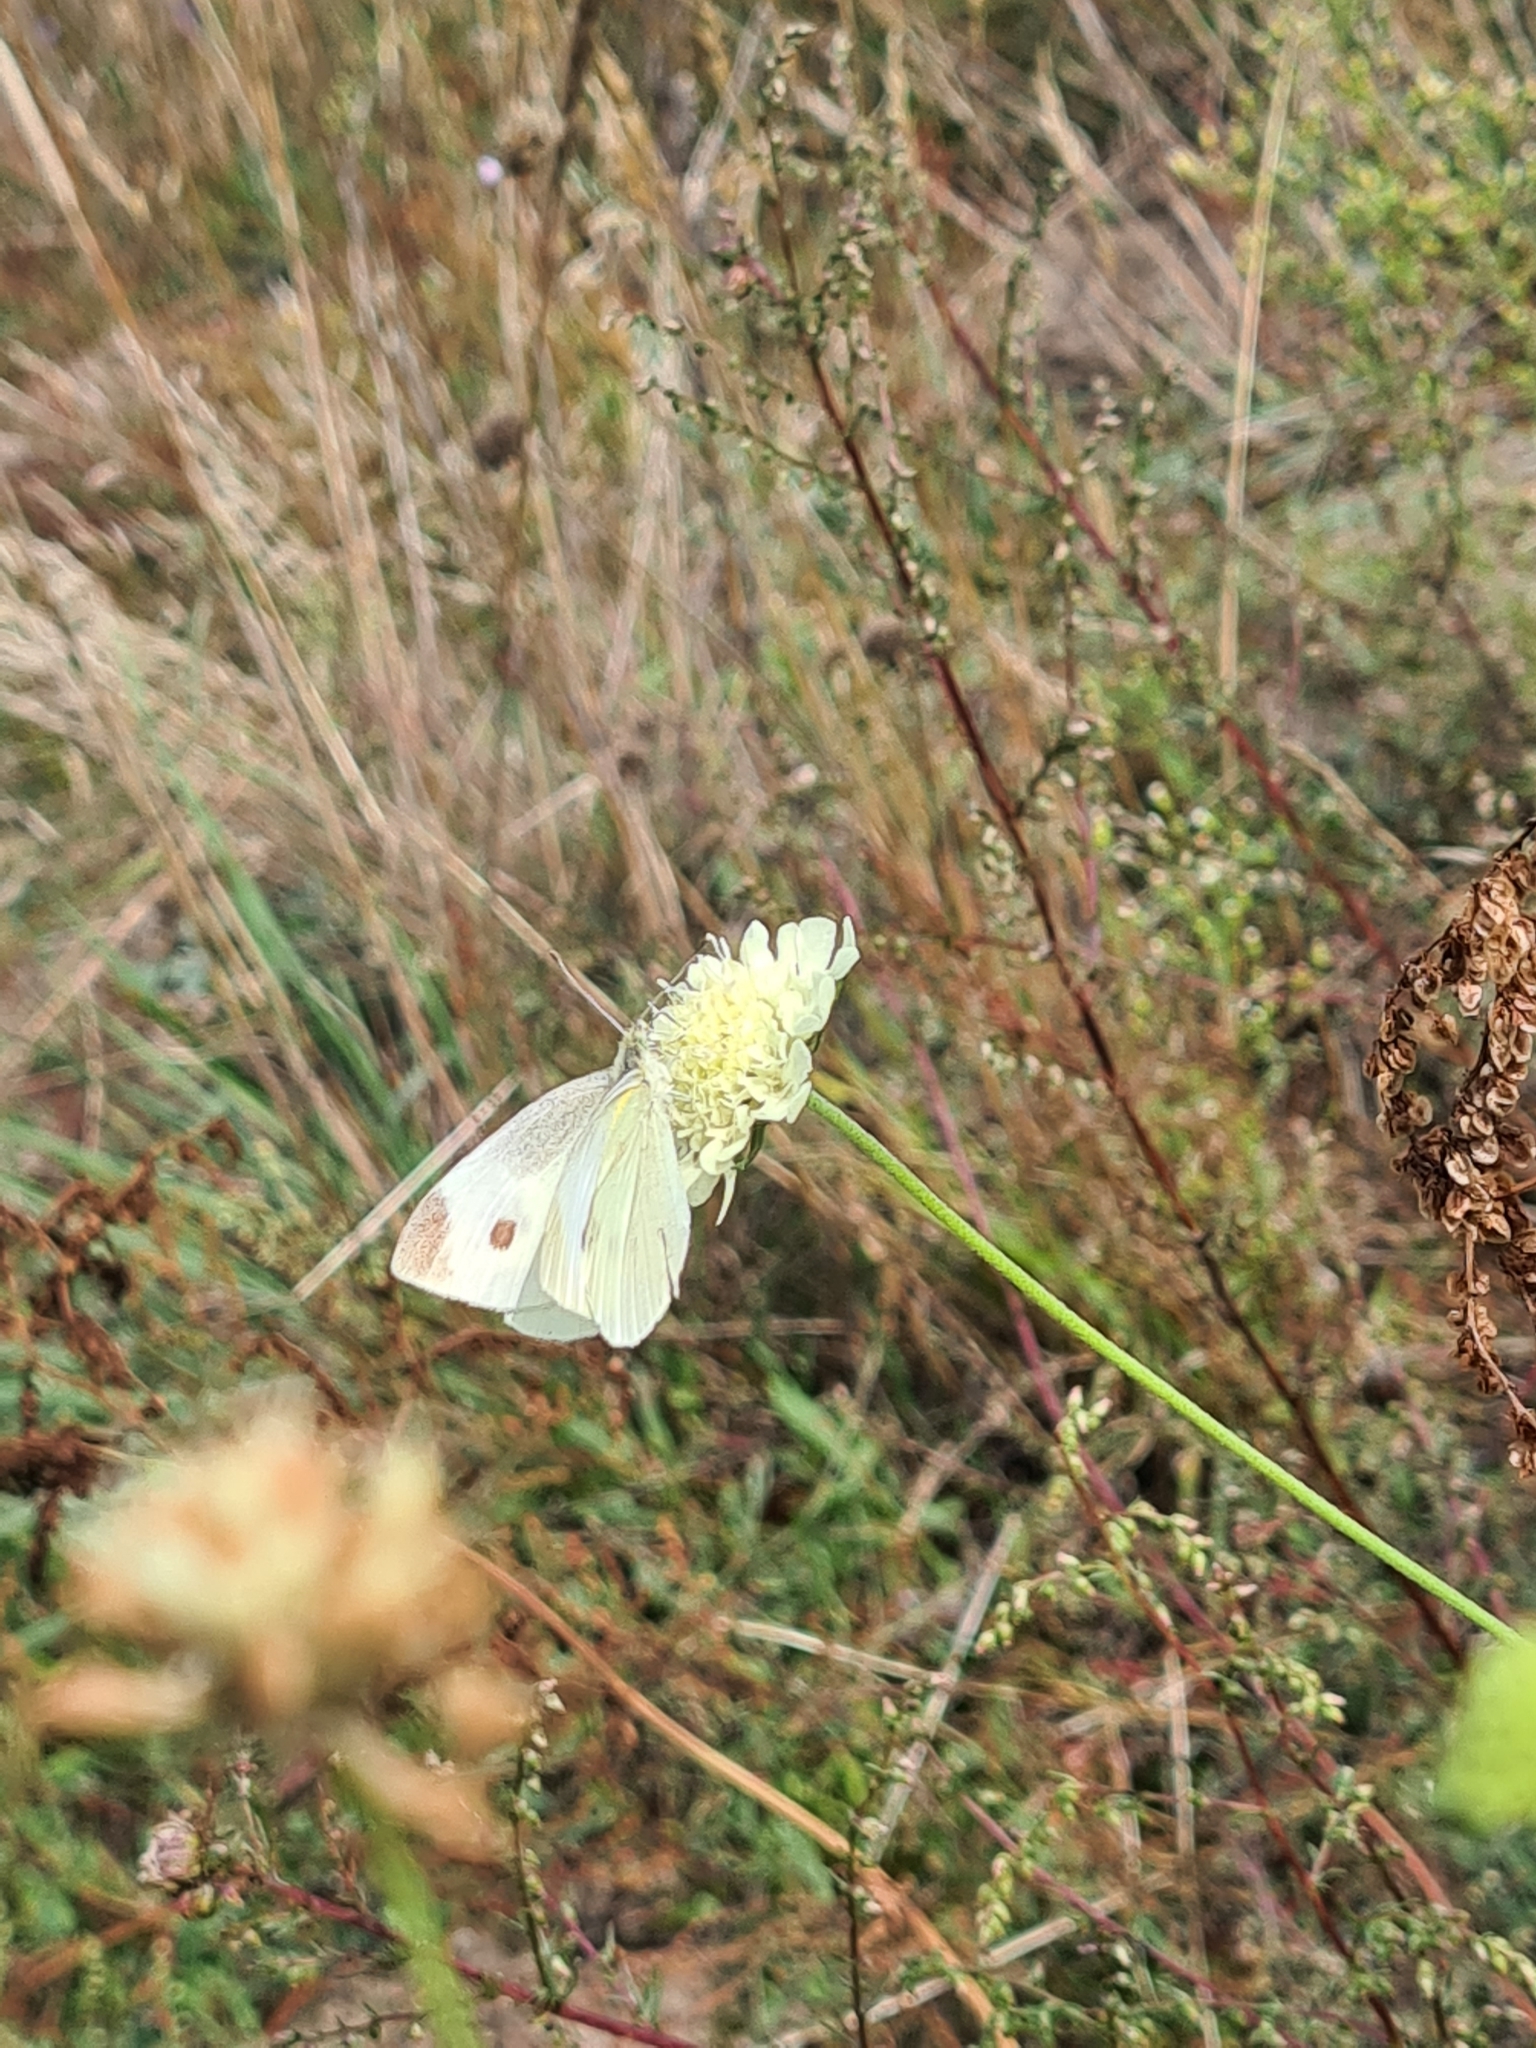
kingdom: Animalia
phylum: Arthropoda
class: Insecta
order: Lepidoptera
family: Pieridae
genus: Pieris
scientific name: Pieris rapae
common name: Small white
